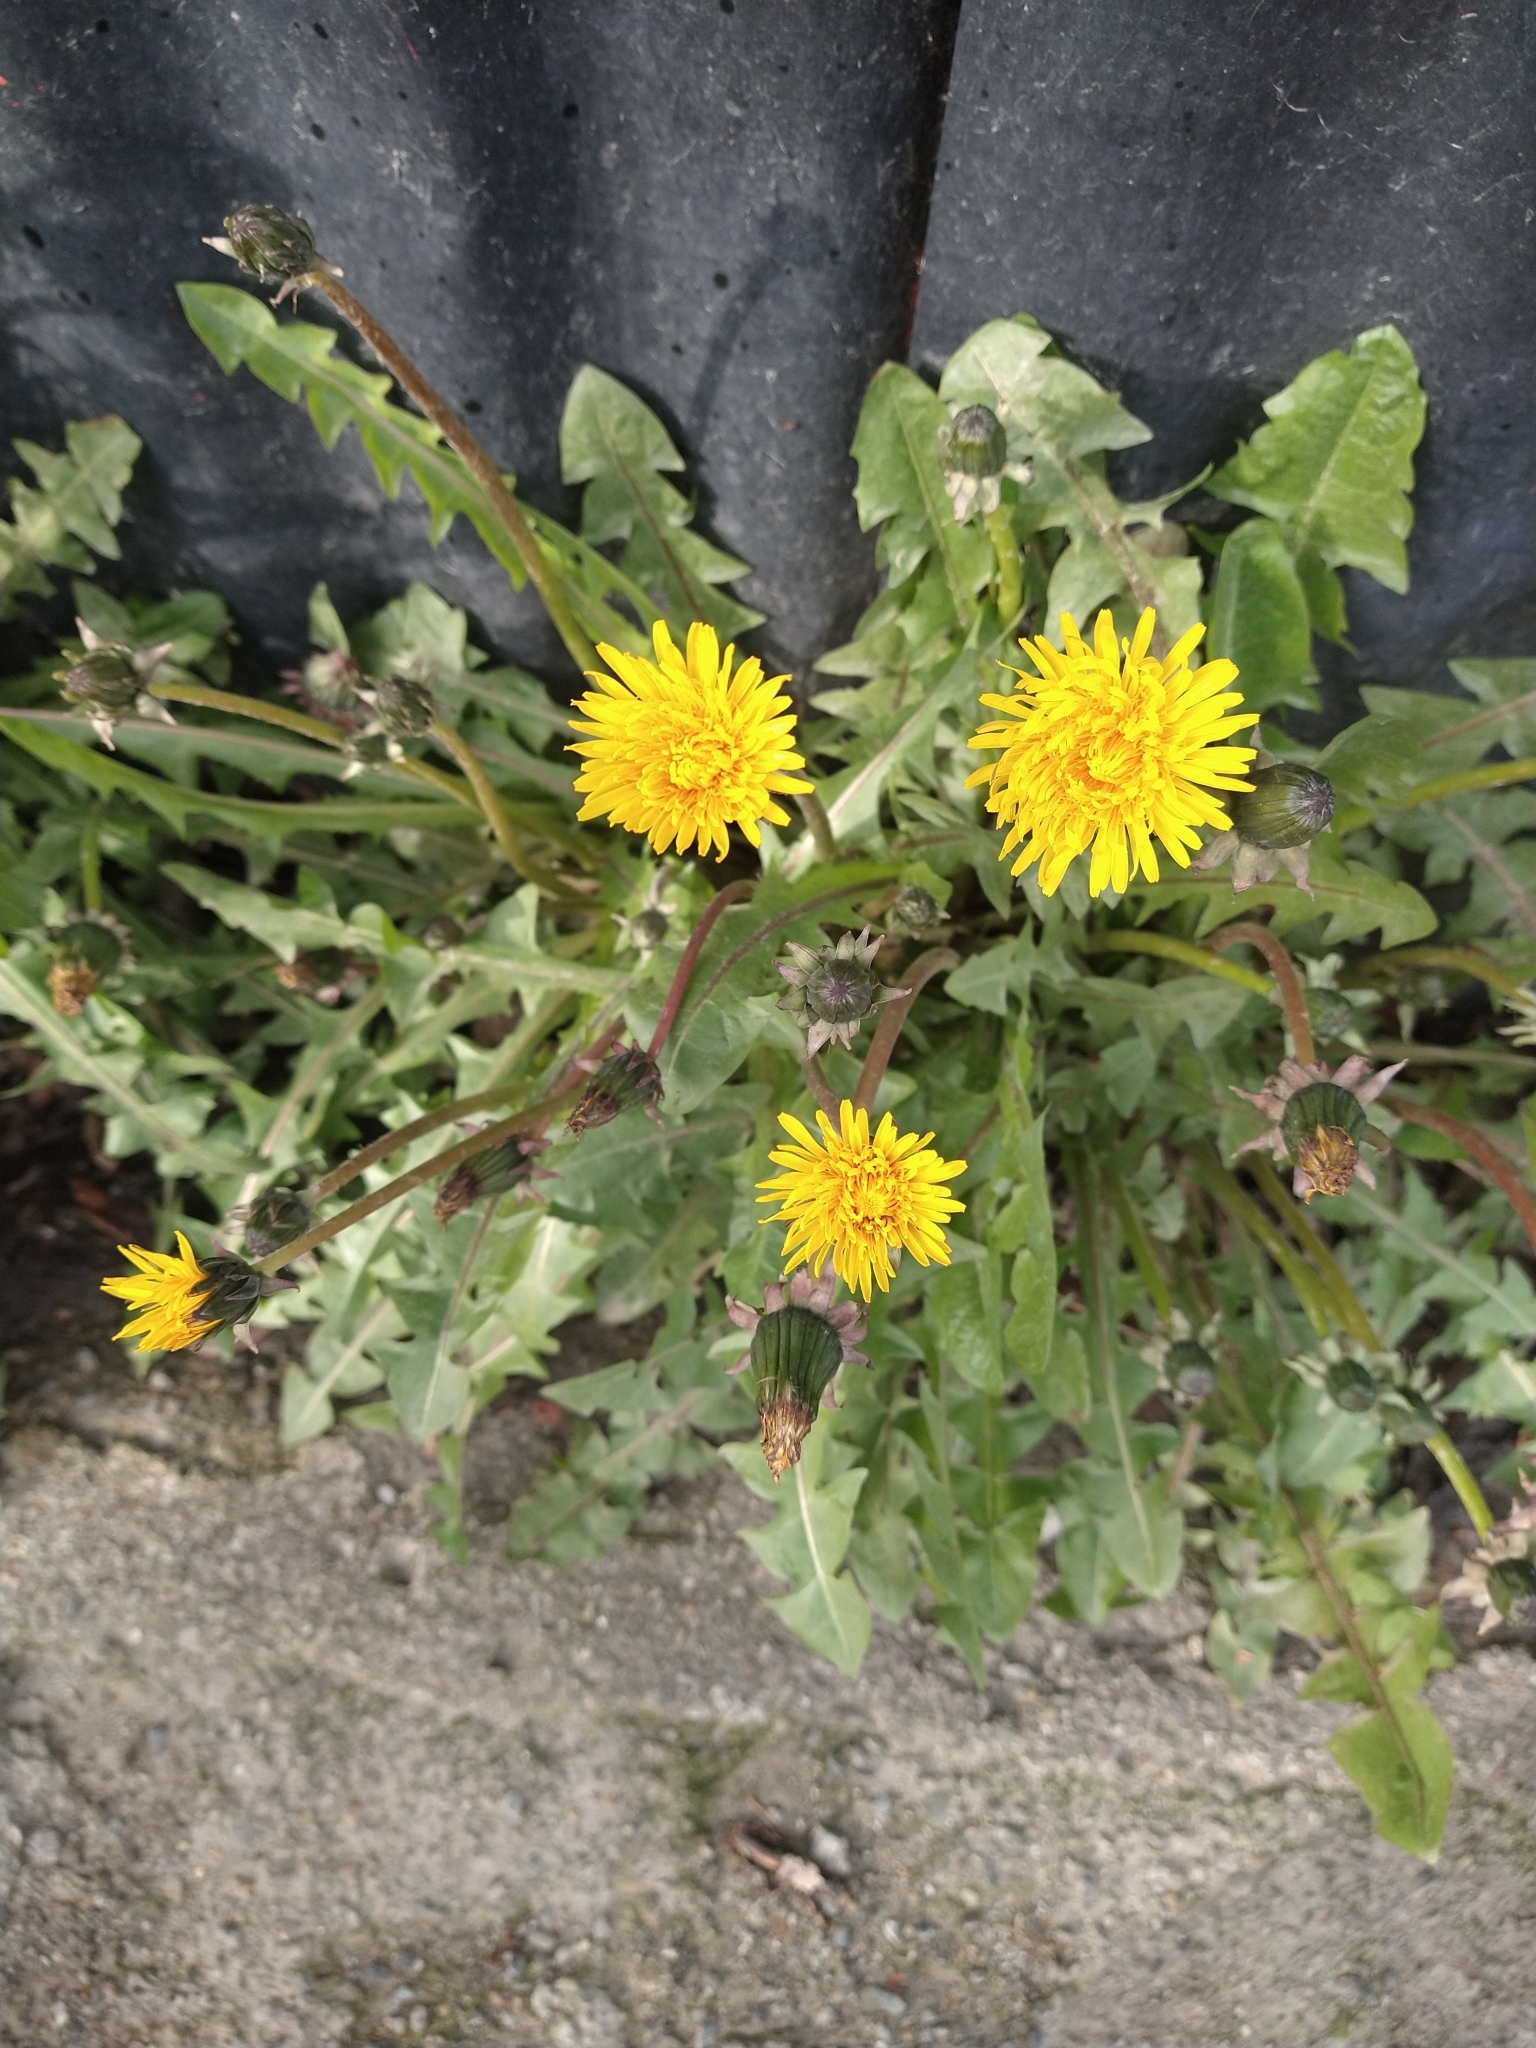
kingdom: Plantae
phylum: Tracheophyta
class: Magnoliopsida
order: Asterales
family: Asteraceae
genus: Taraxacum
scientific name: Taraxacum officinale
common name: Common dandelion
